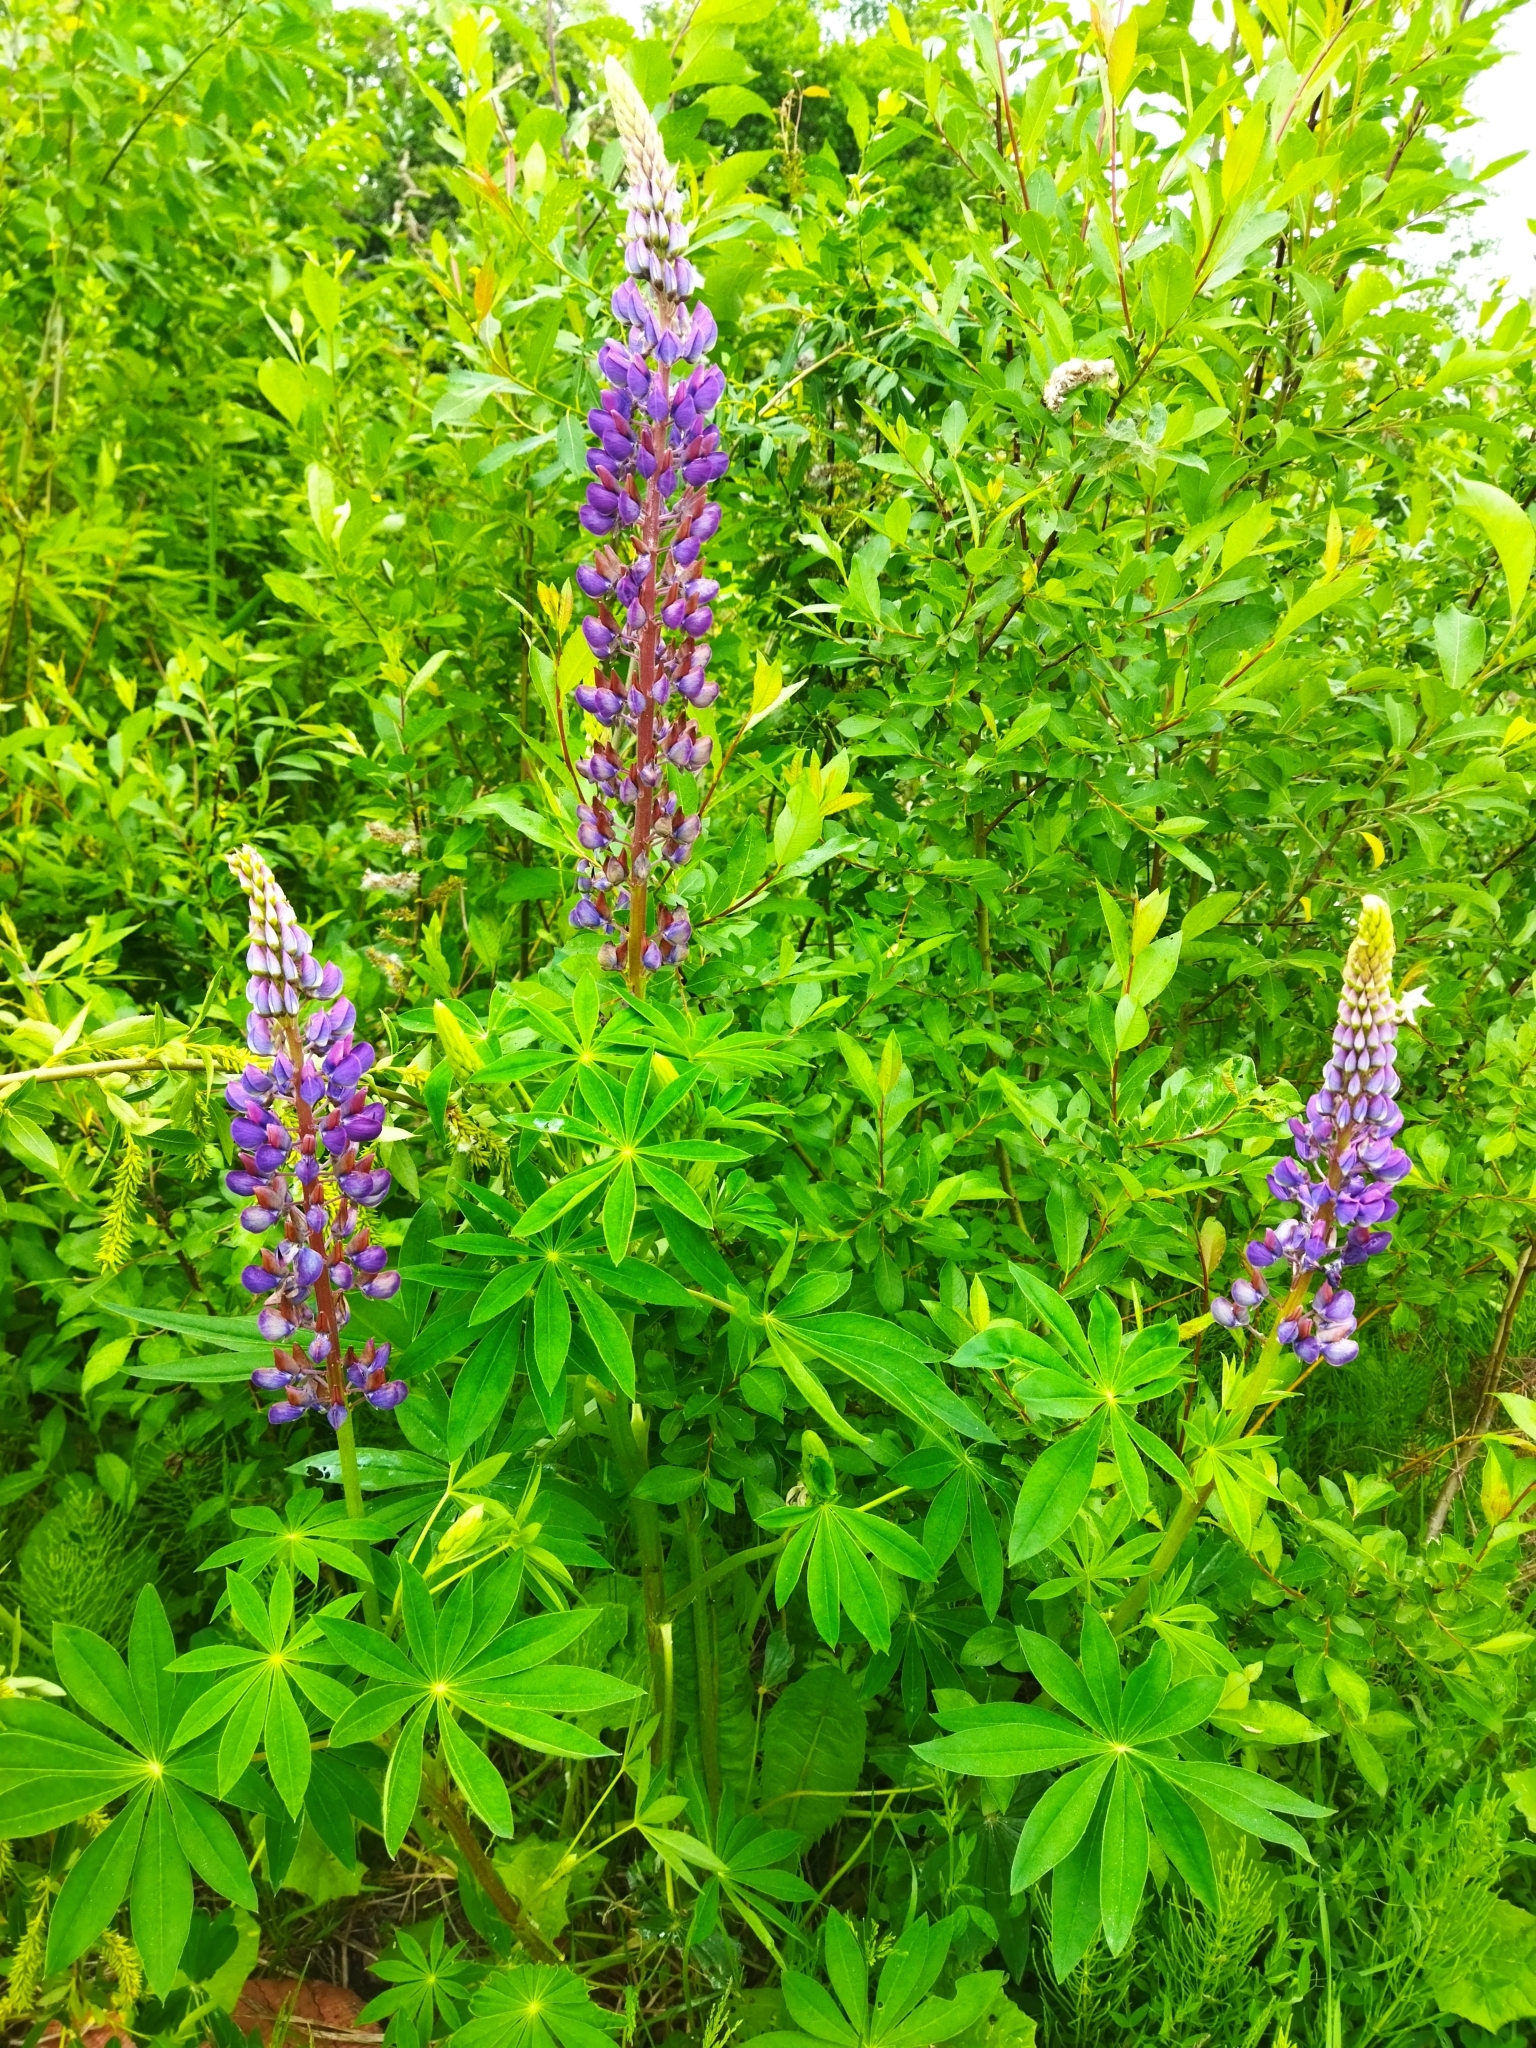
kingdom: Plantae
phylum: Tracheophyta
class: Magnoliopsida
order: Fabales
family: Fabaceae
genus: Lupinus
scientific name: Lupinus polyphyllus
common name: Garden lupin
